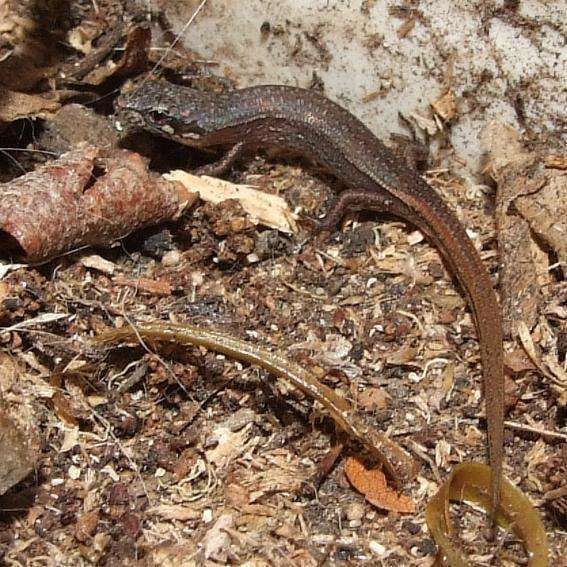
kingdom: Animalia
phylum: Chordata
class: Squamata
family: Scincidae
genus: Saproscincus
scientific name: Saproscincus mustelinus
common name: Southern weasel skink
